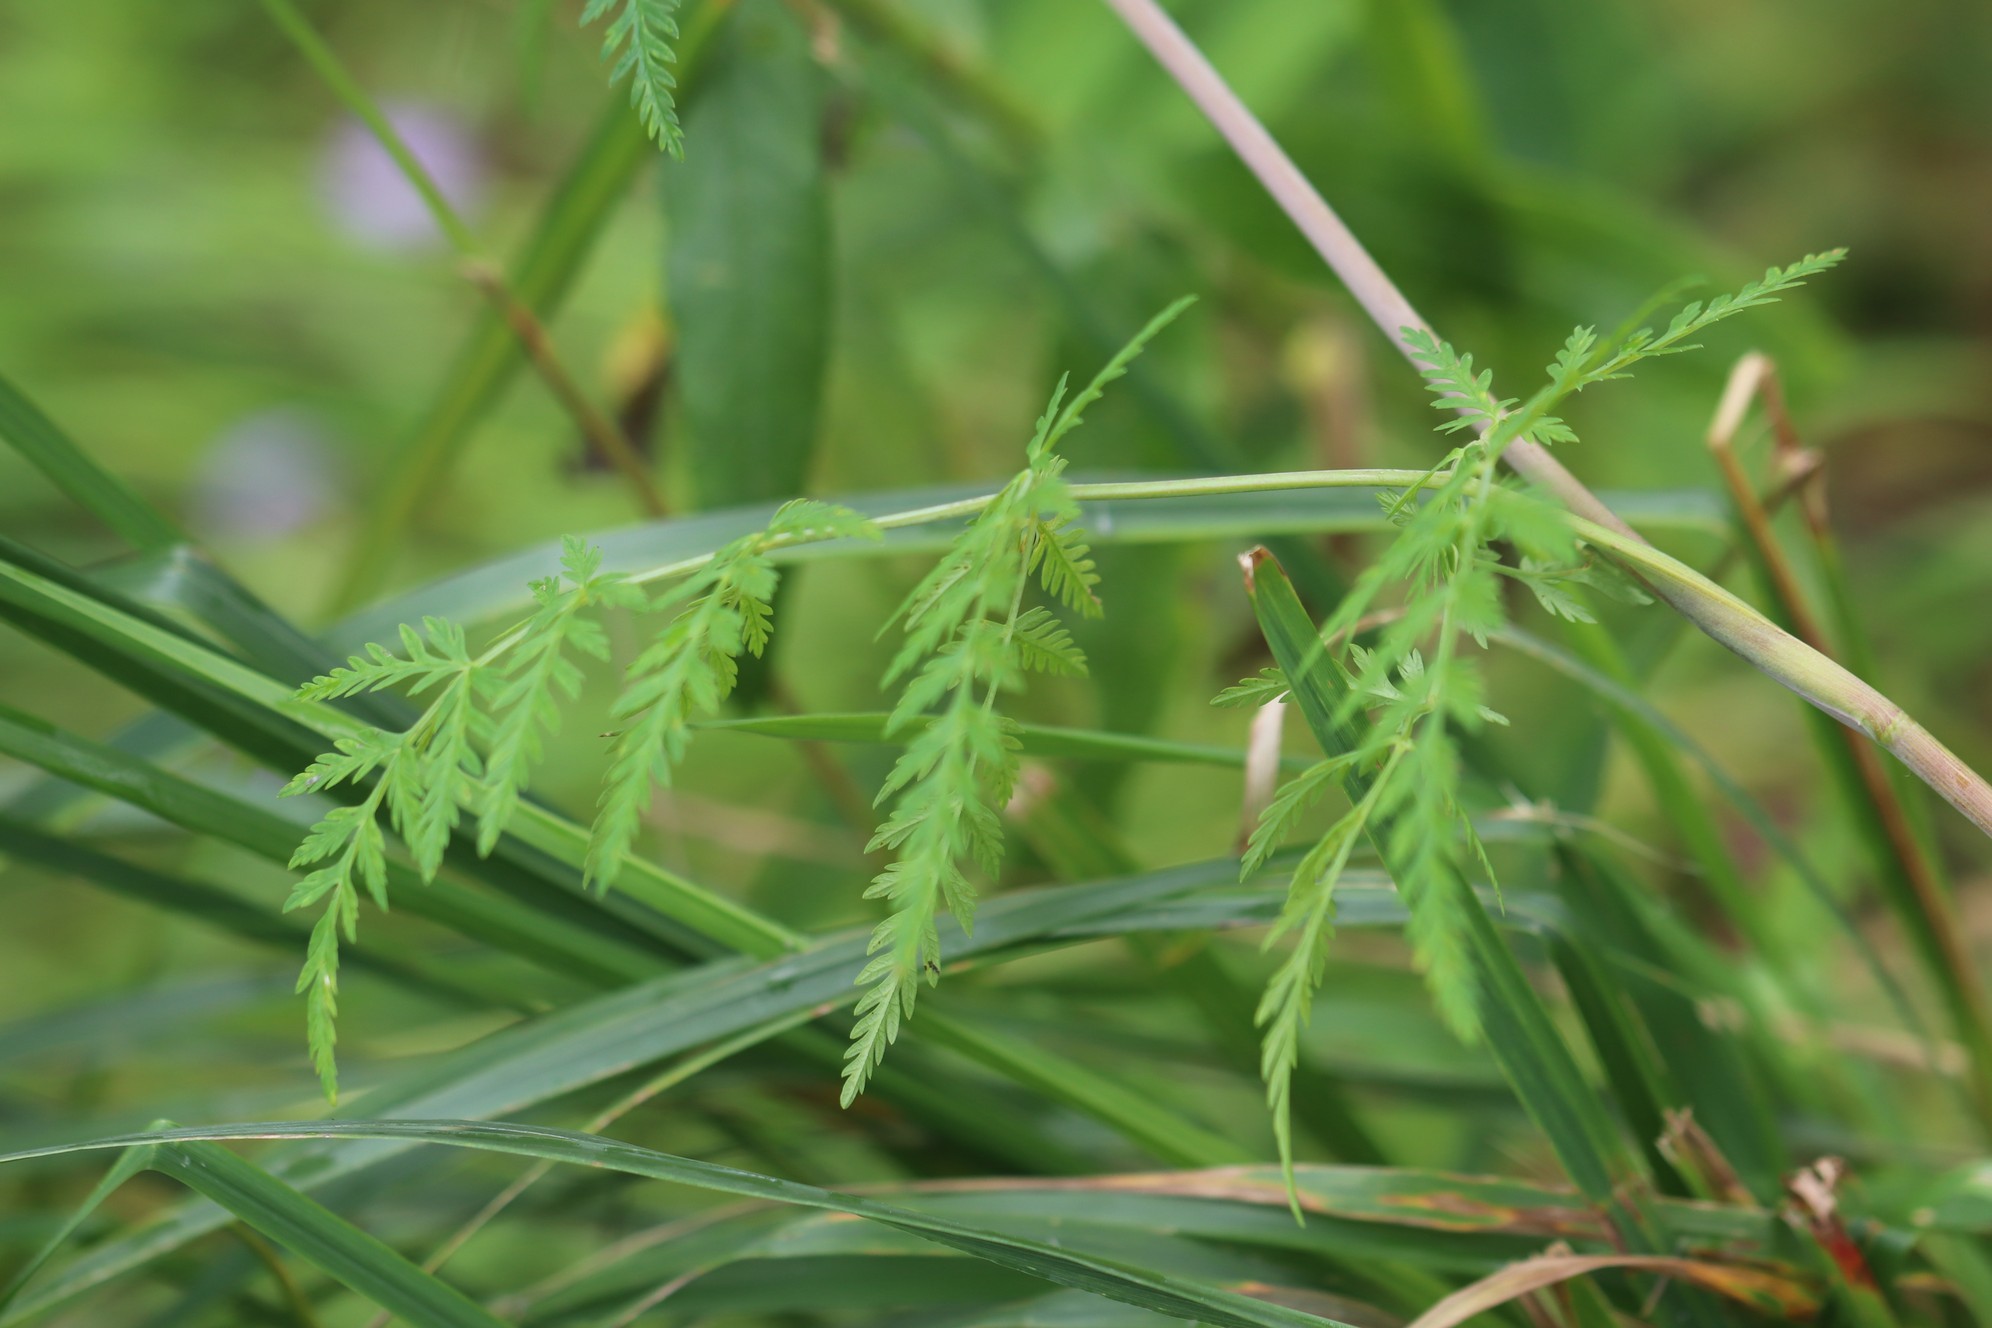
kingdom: Plantae
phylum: Tracheophyta
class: Magnoliopsida
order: Apiales
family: Apiaceae
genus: Conioselinum
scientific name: Conioselinum tataricum
